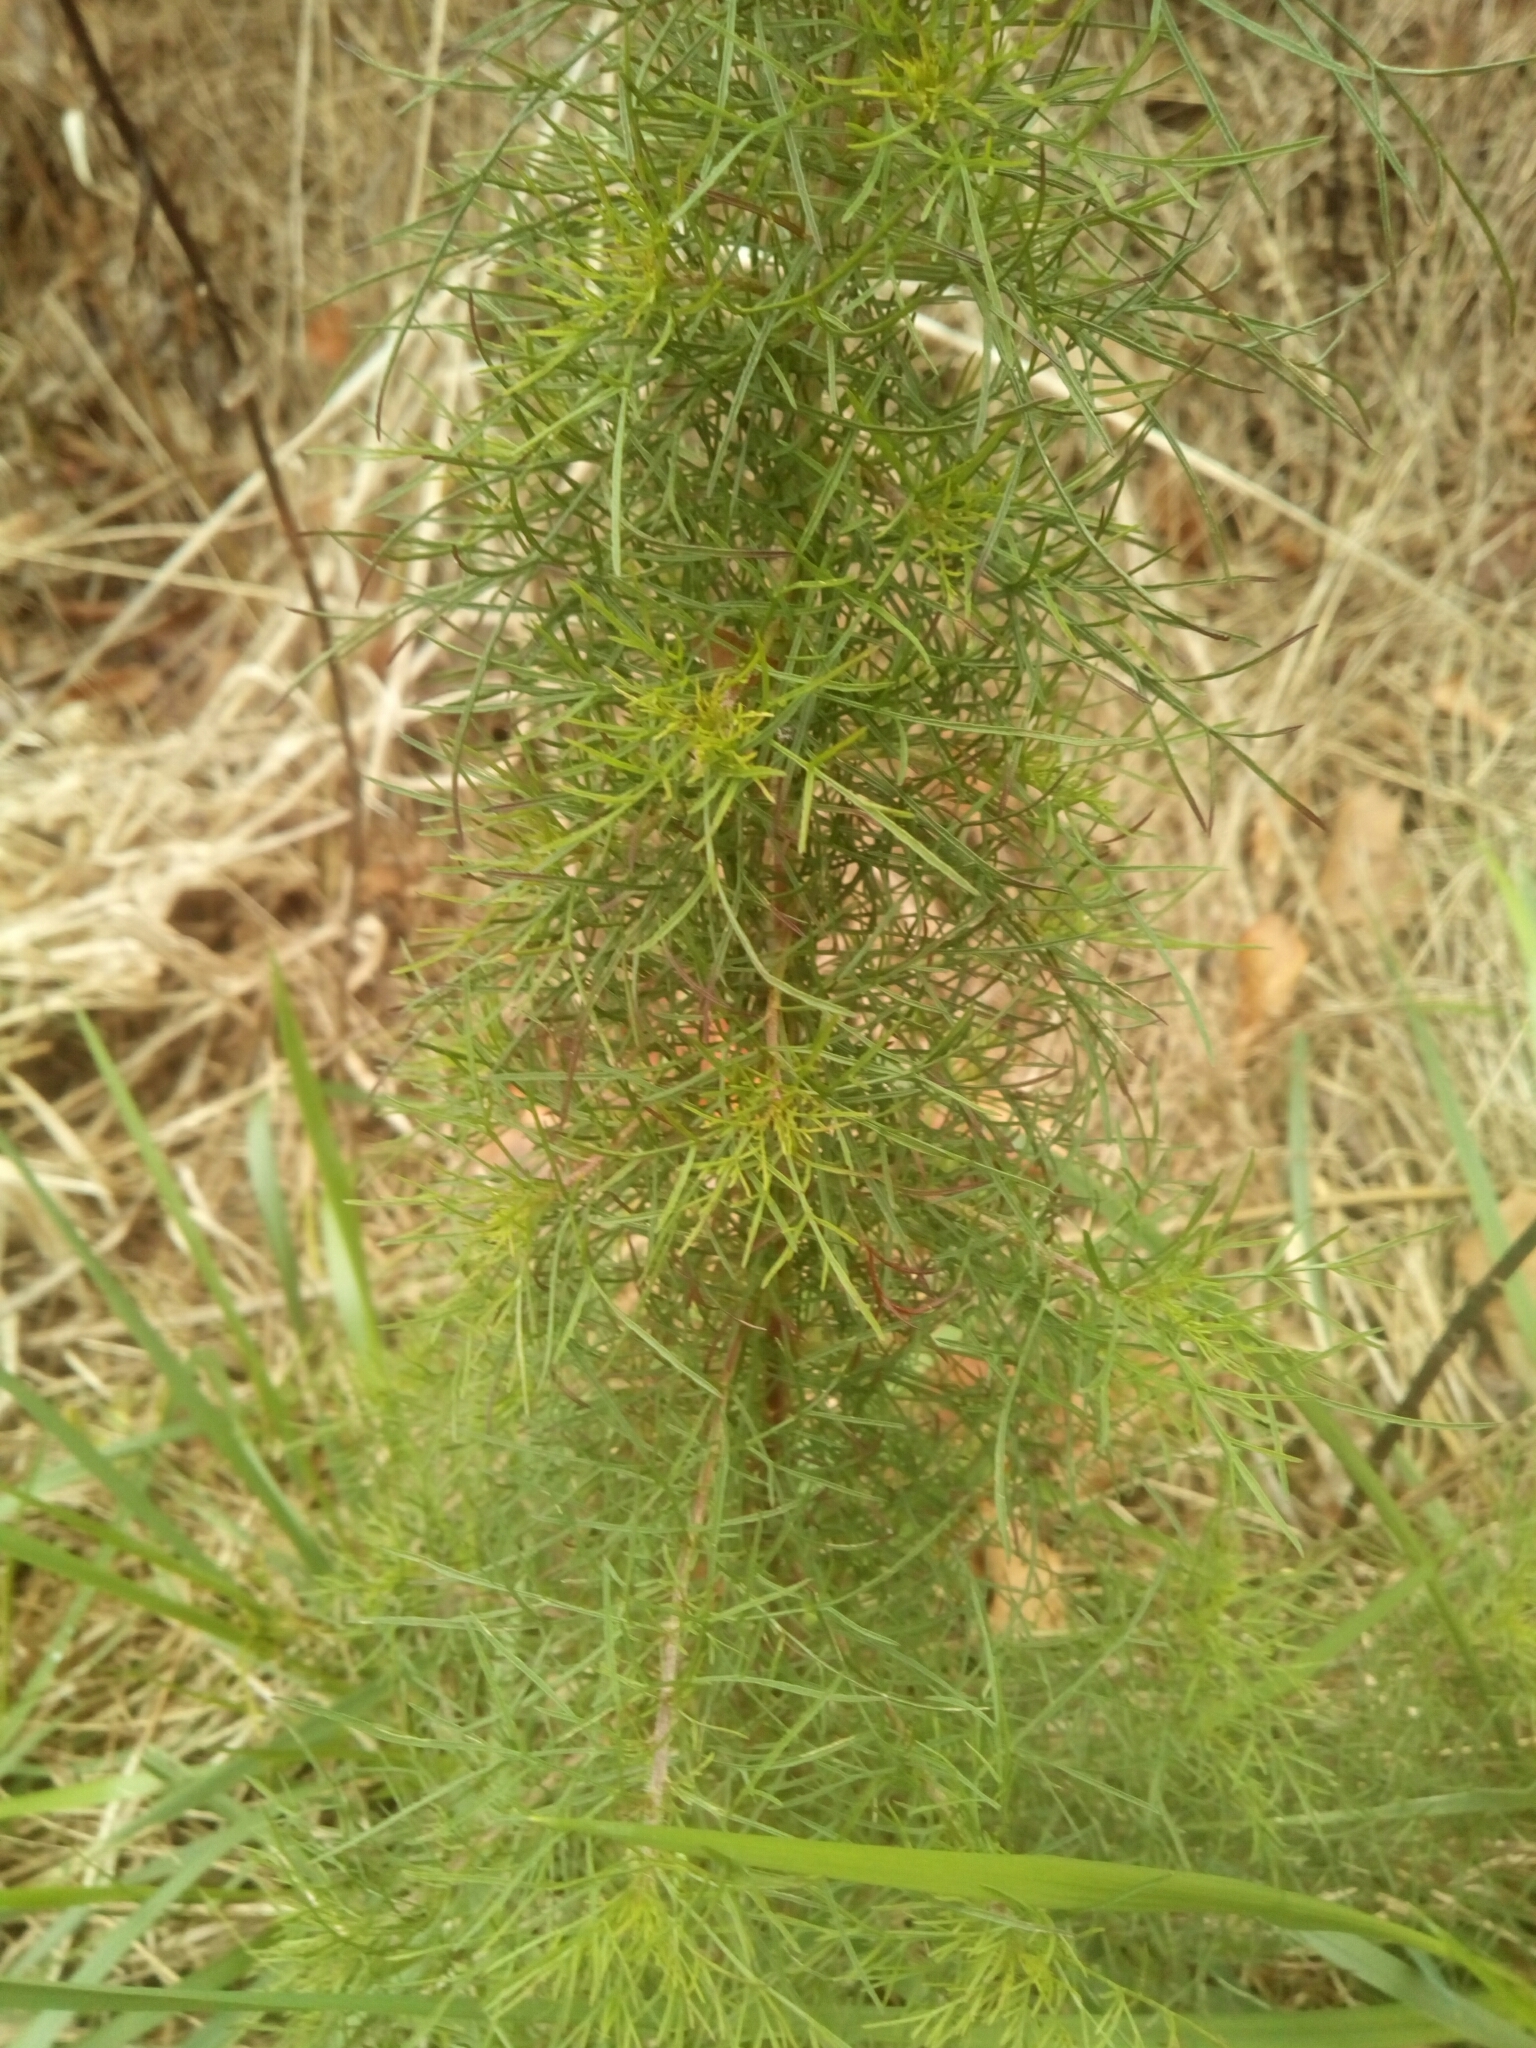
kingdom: Plantae
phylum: Tracheophyta
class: Magnoliopsida
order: Asterales
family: Asteraceae
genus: Eupatorium
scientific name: Eupatorium capillifolium
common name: Dog-fennel
